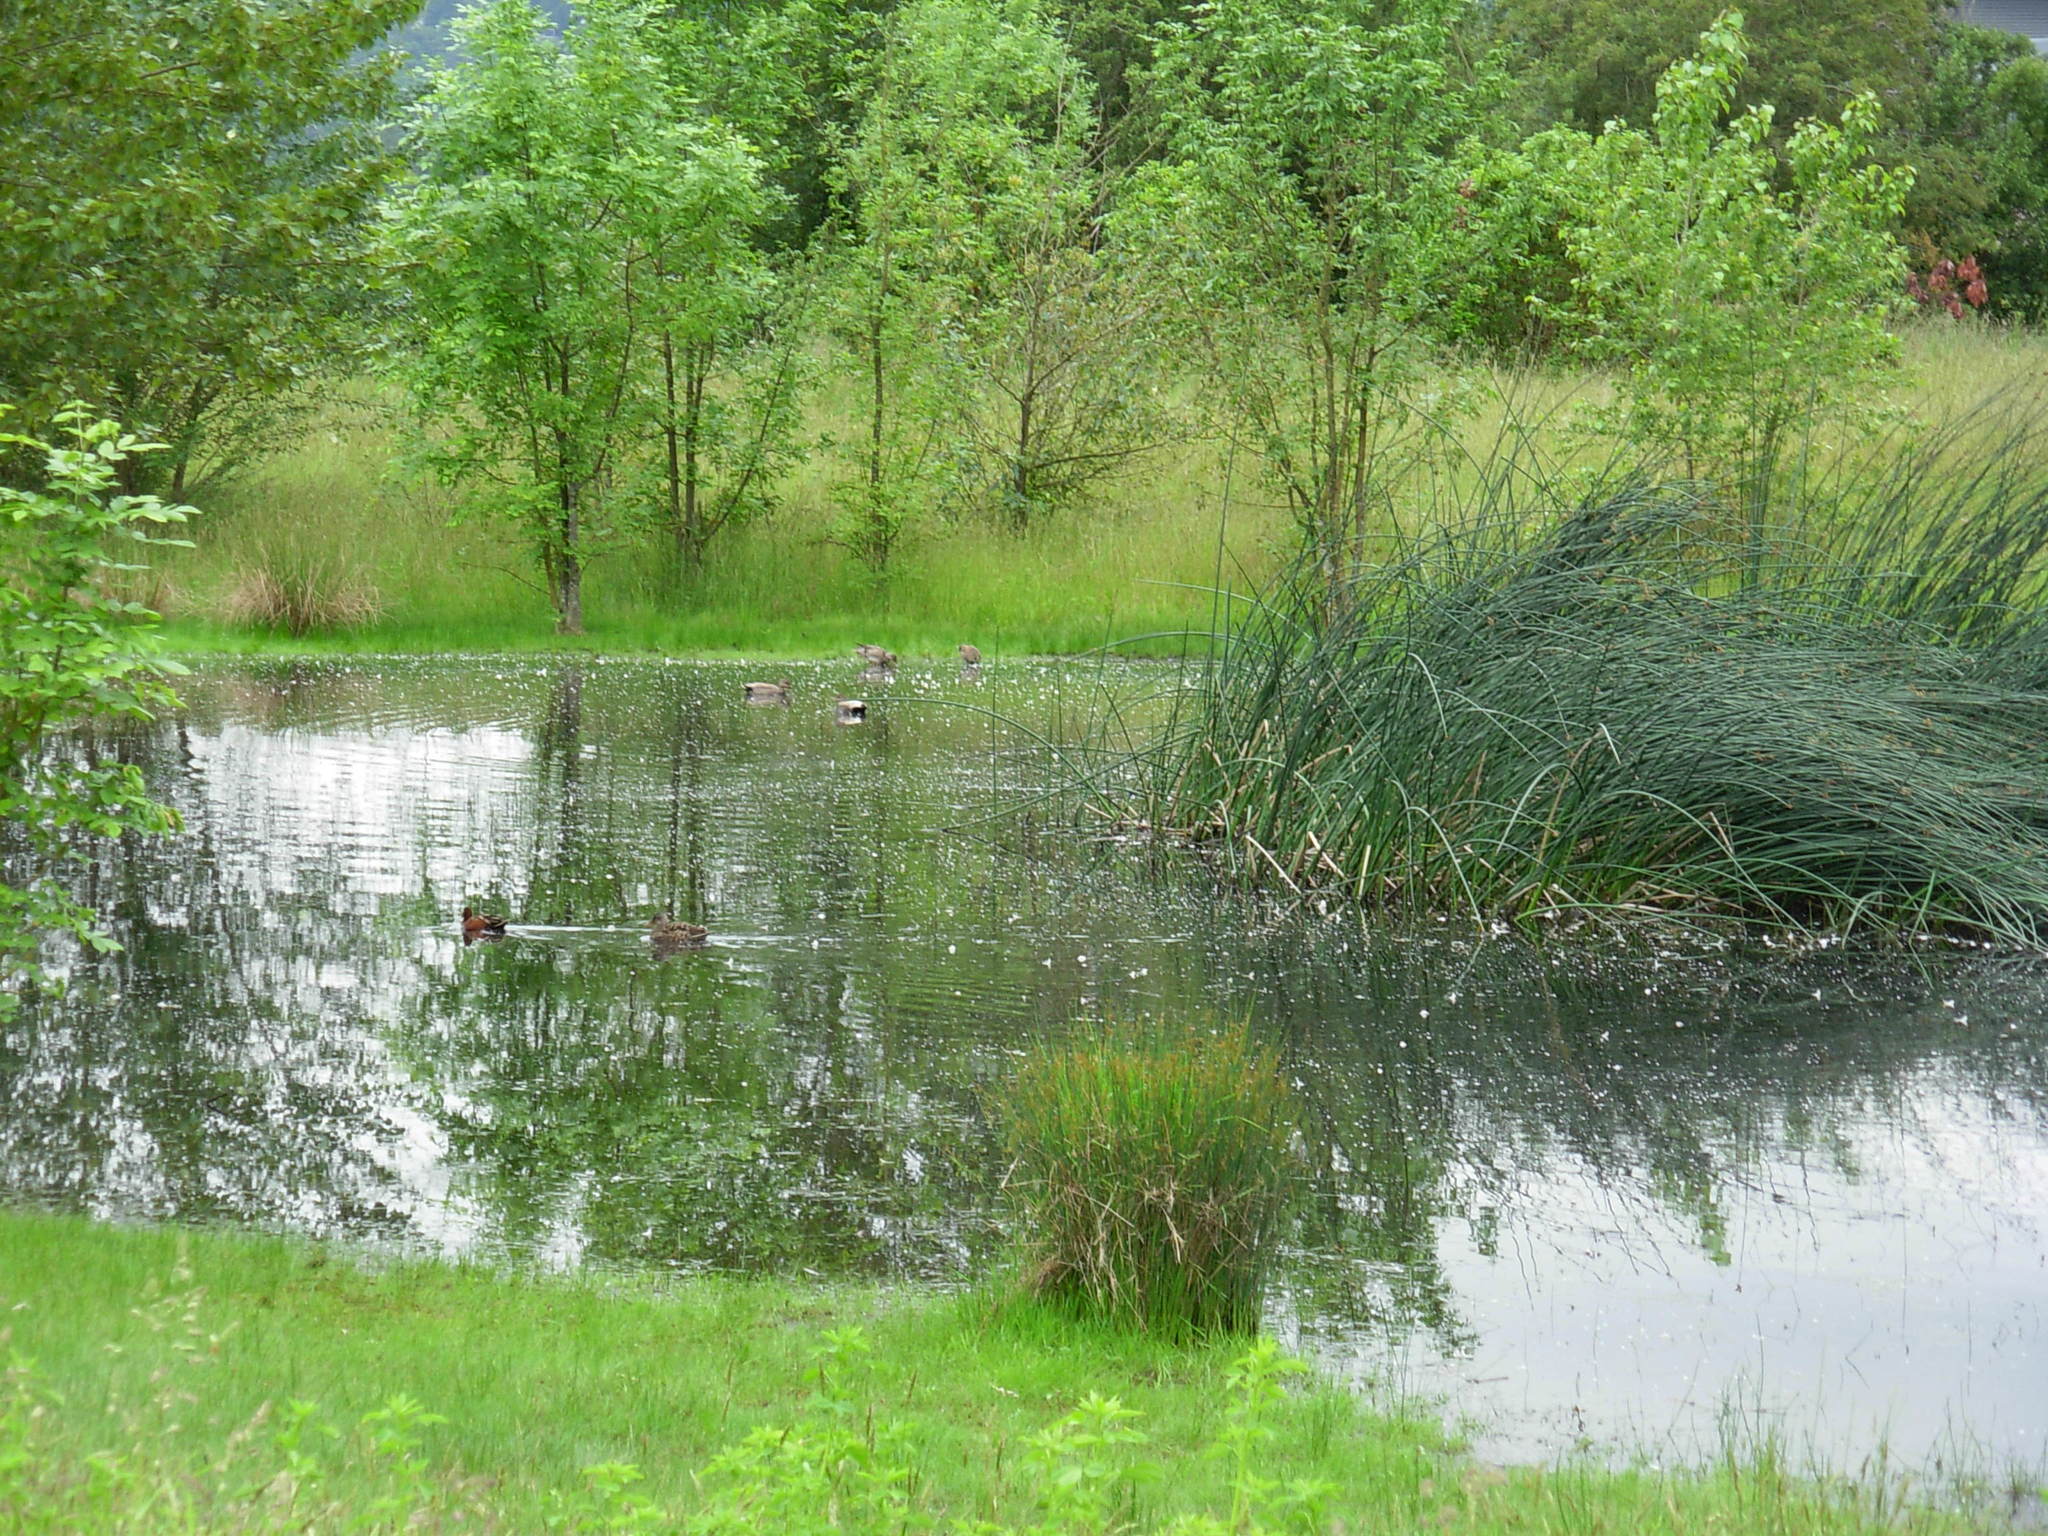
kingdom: Animalia
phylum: Chordata
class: Aves
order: Anseriformes
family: Anatidae
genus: Spatula
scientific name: Spatula cyanoptera
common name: Cinnamon teal
